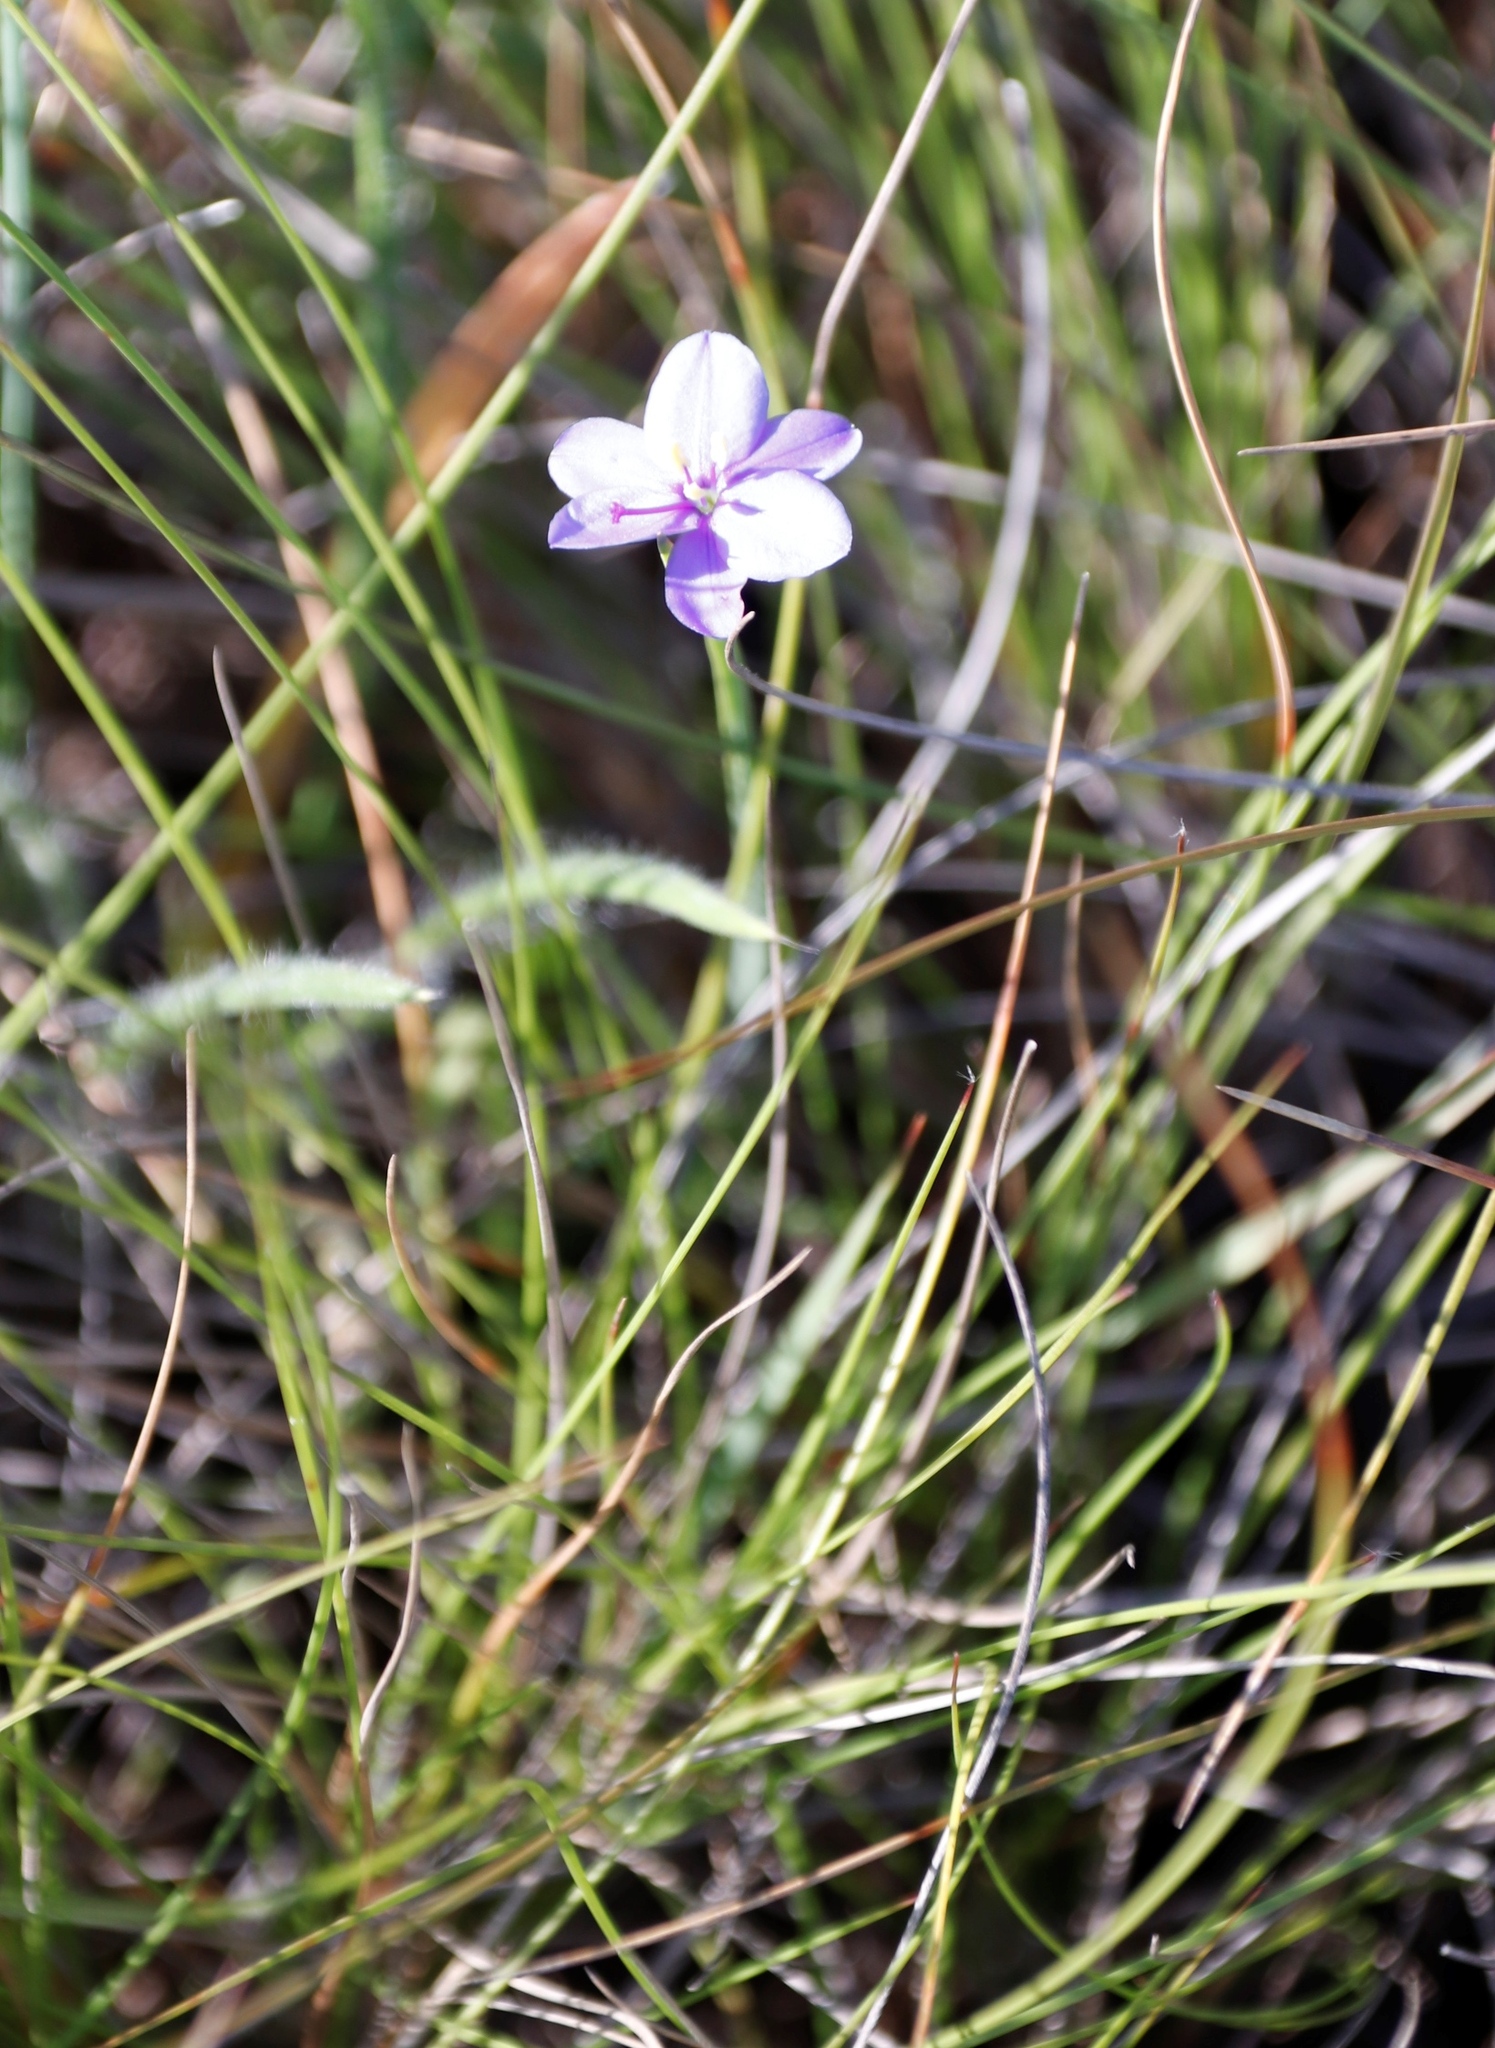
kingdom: Plantae
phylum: Tracheophyta
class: Liliopsida
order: Asparagales
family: Iridaceae
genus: Aristea
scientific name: Aristea abyssinica
